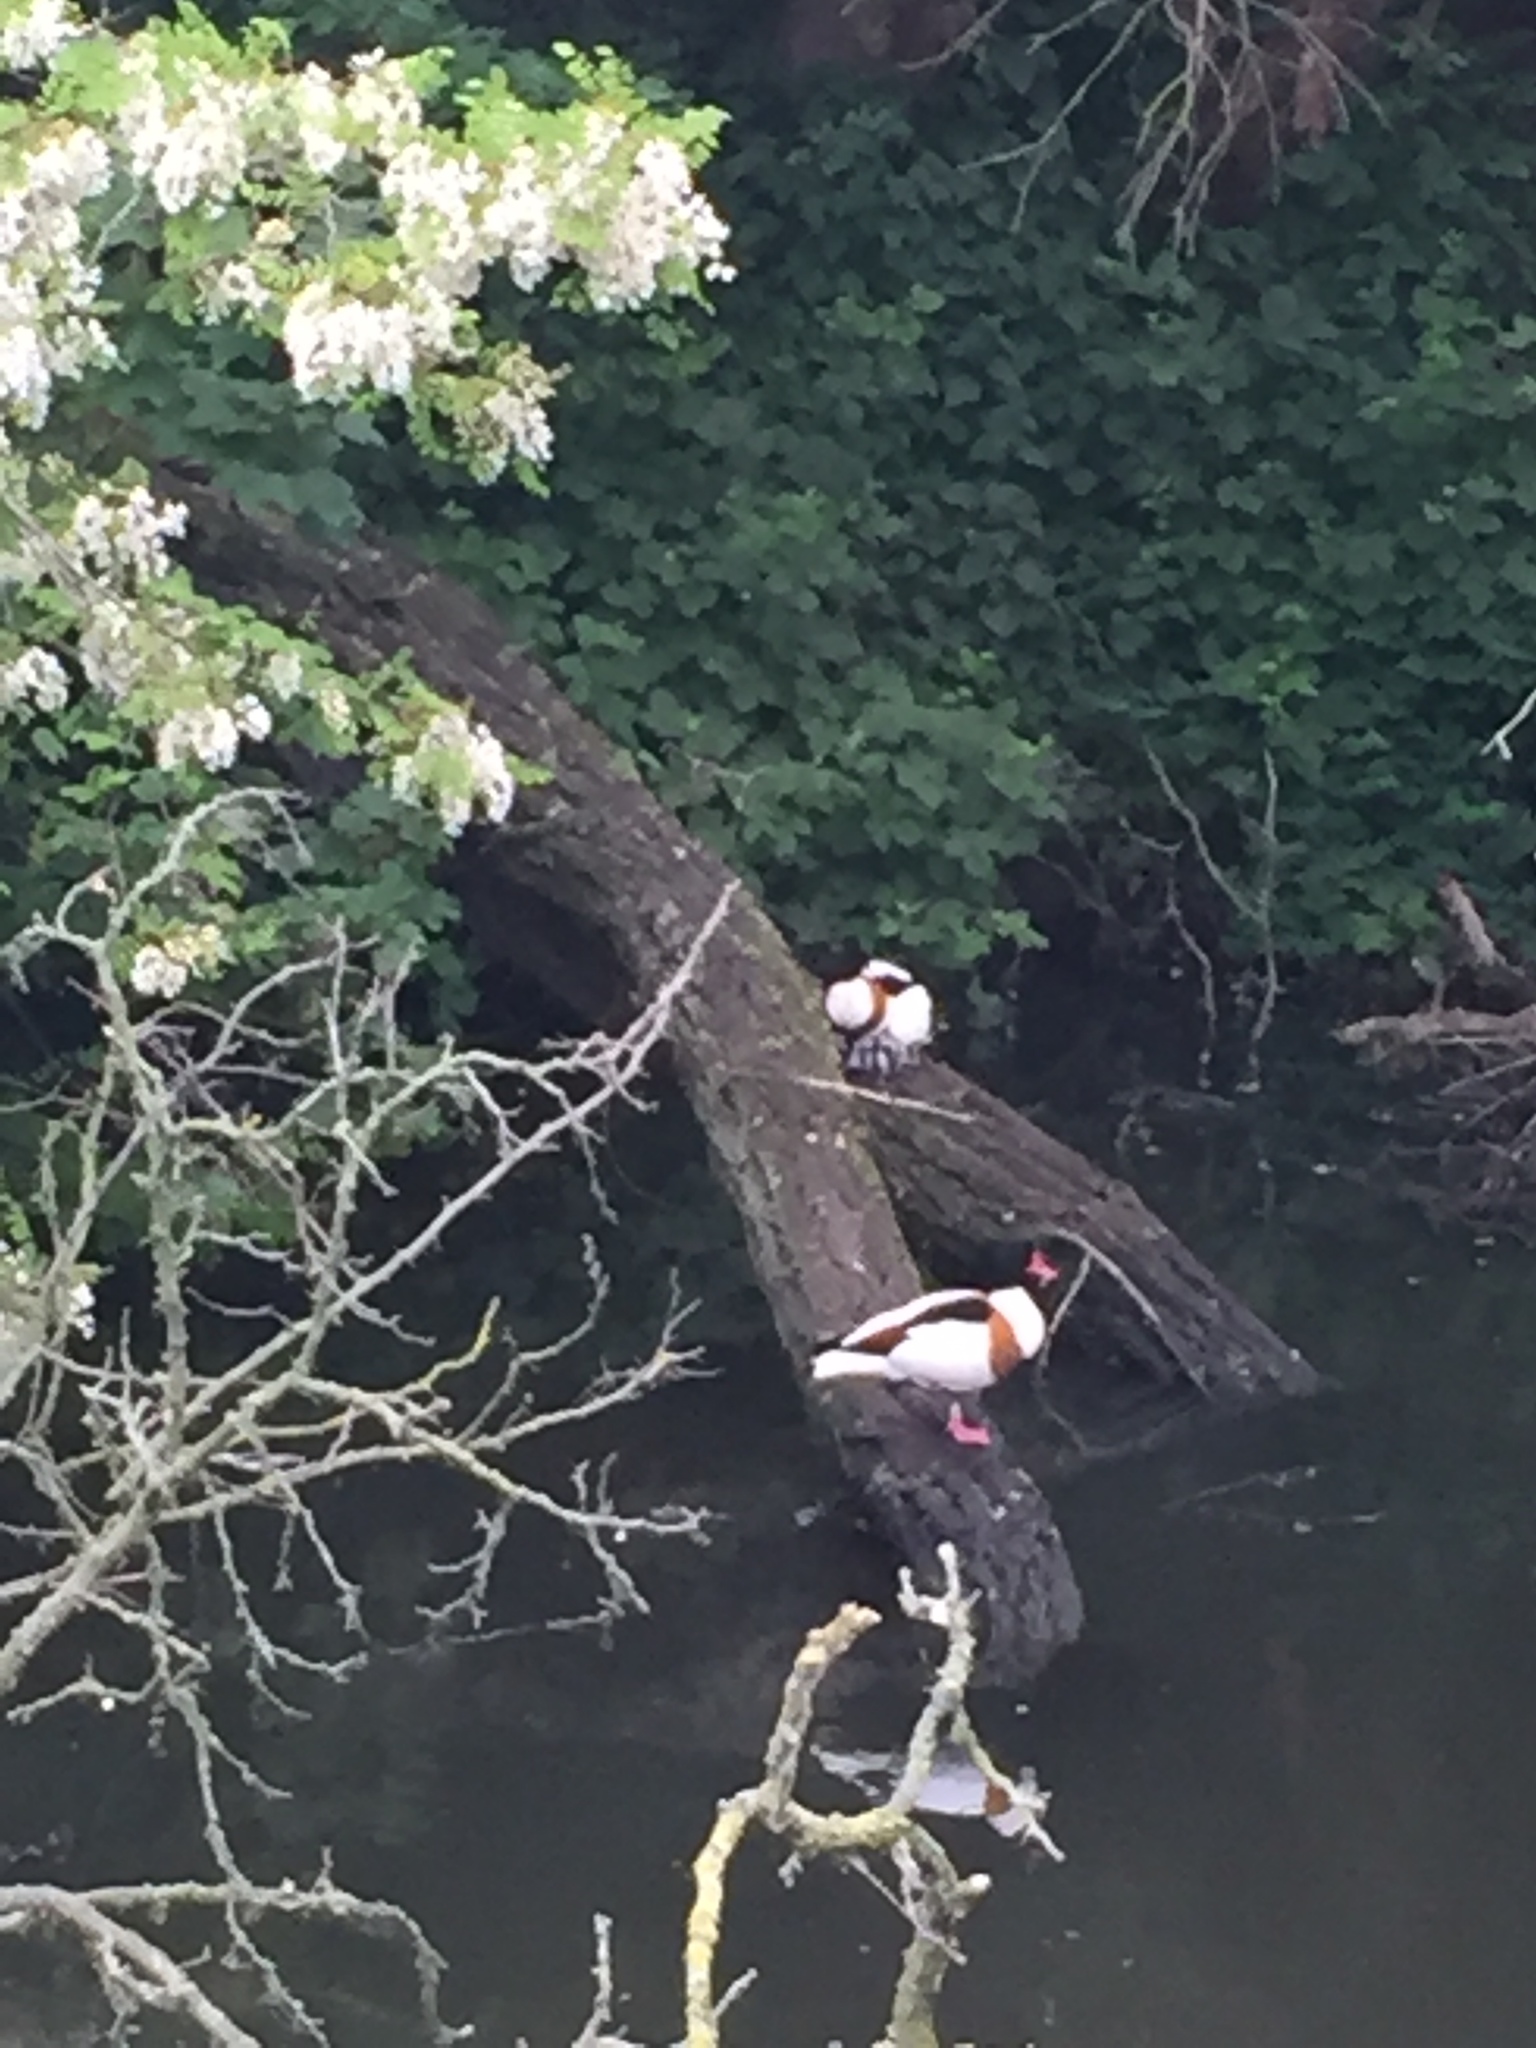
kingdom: Animalia
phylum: Chordata
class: Aves
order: Anseriformes
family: Anatidae
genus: Tadorna
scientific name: Tadorna tadorna
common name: Common shelduck
